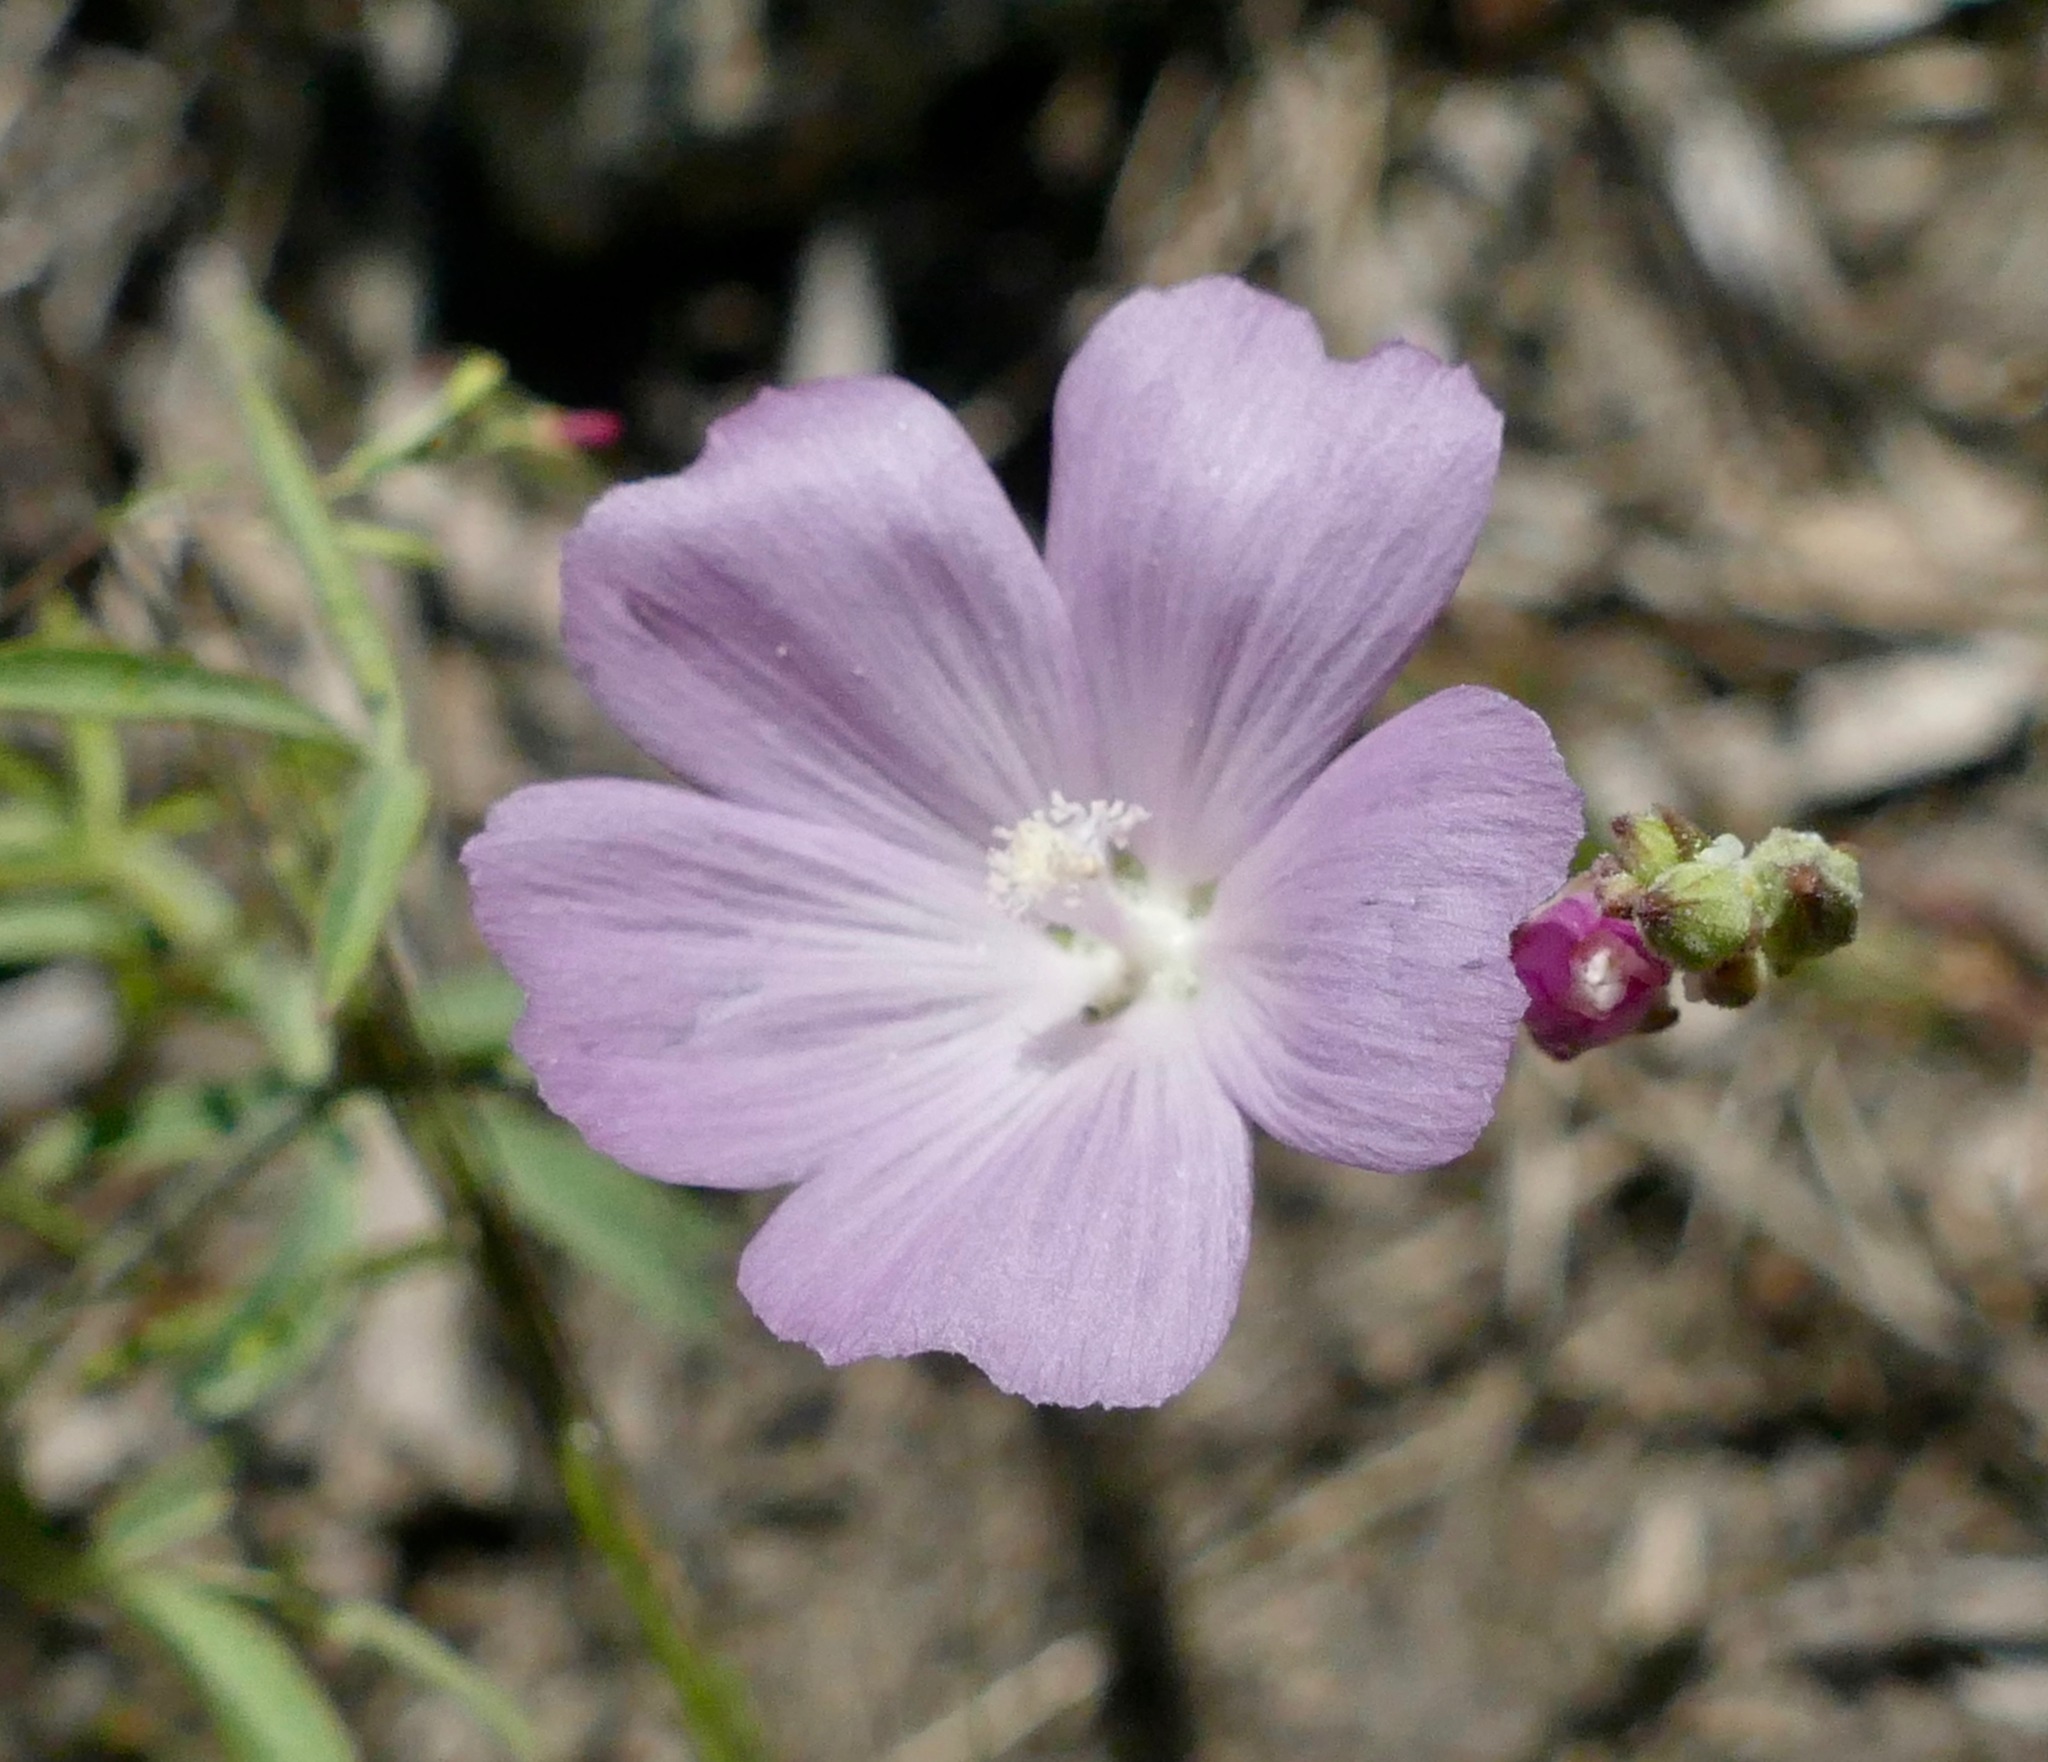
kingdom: Plantae
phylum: Tracheophyta
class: Magnoliopsida
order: Malvales
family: Malvaceae
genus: Sidalcea
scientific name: Sidalcea glaucescens
